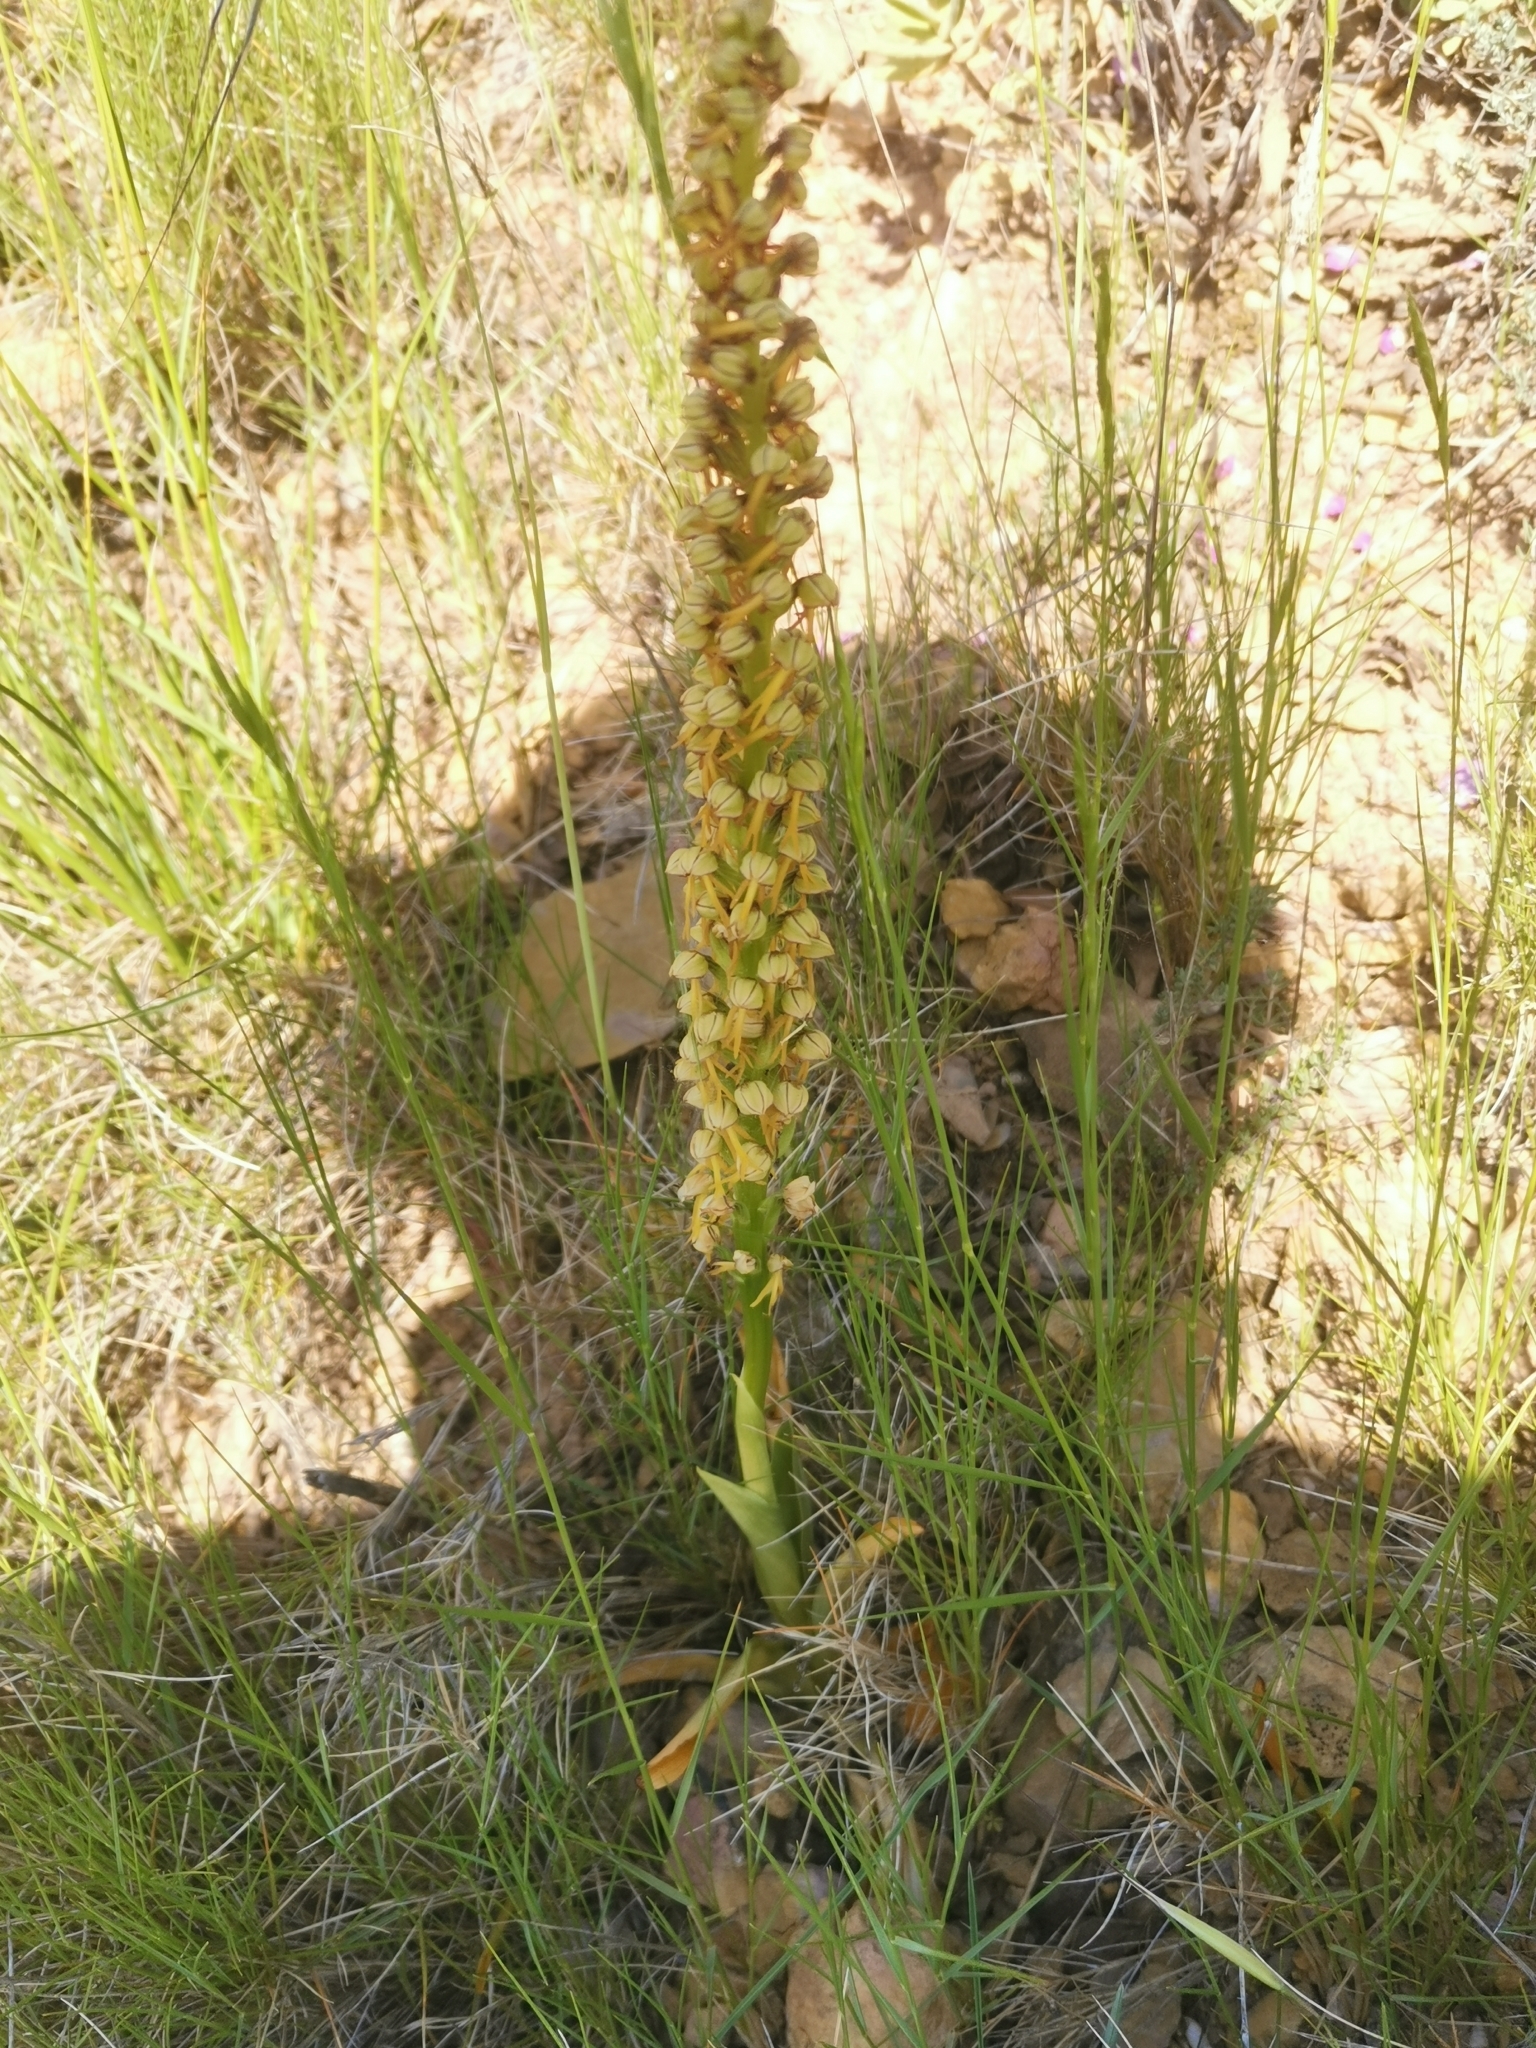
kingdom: Plantae
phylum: Tracheophyta
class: Liliopsida
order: Asparagales
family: Orchidaceae
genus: Orchis
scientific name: Orchis anthropophora
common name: Man orchid
